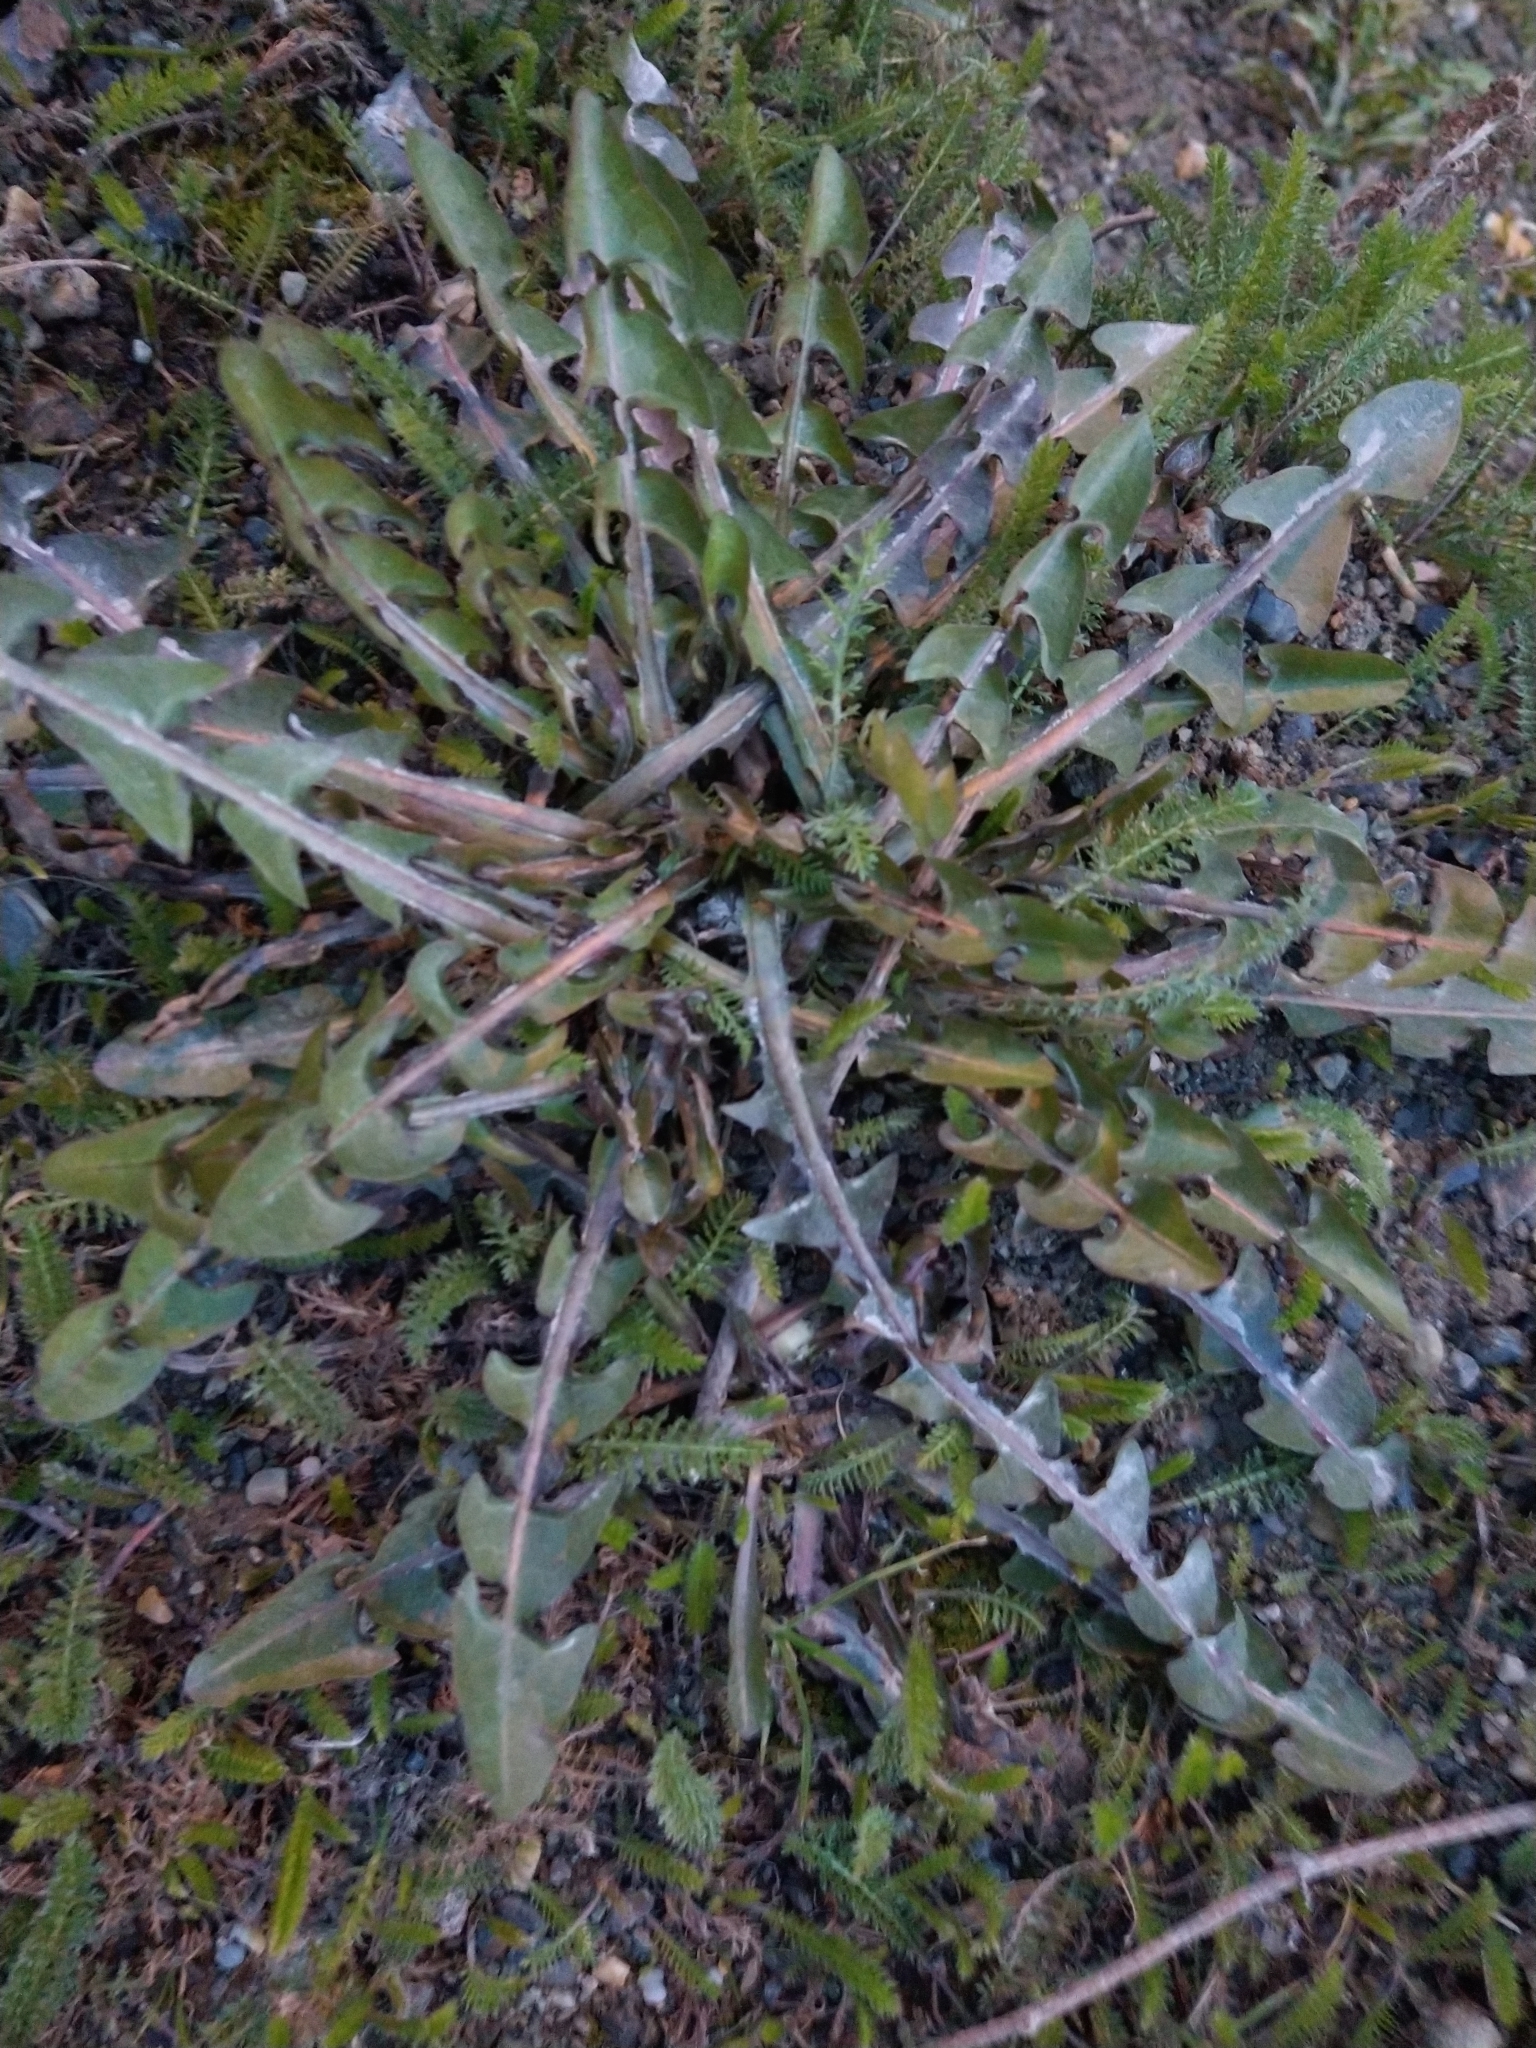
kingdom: Plantae
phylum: Tracheophyta
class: Magnoliopsida
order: Asterales
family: Asteraceae
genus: Taraxacum
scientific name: Taraxacum officinale
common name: Common dandelion
